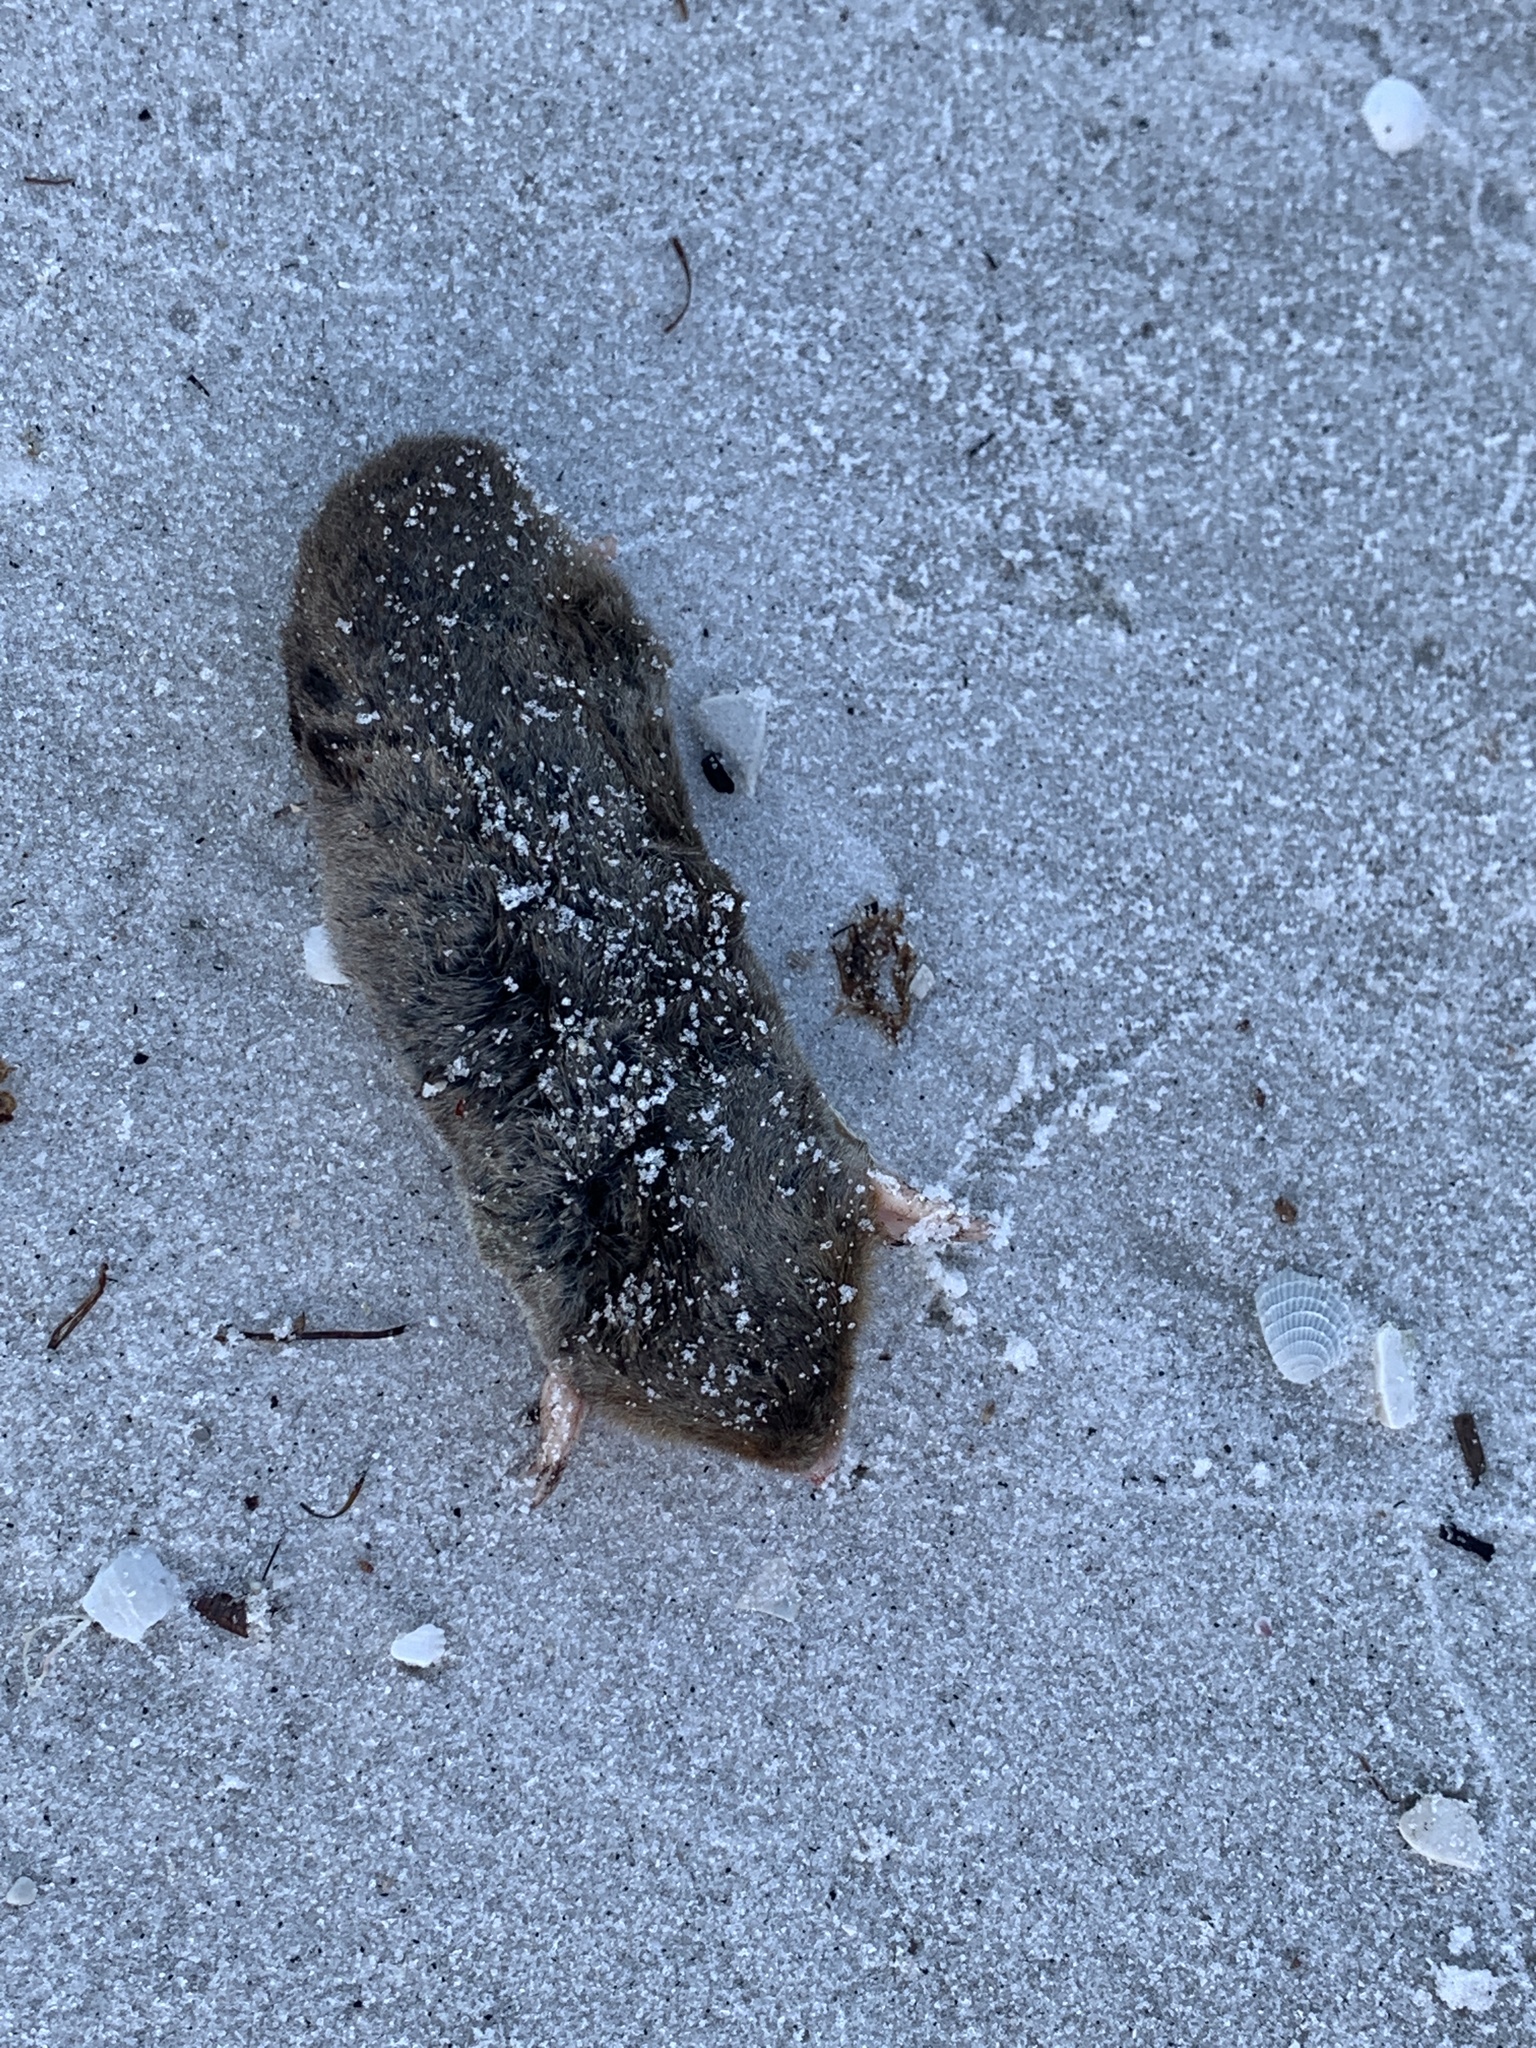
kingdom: Animalia
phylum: Chordata
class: Mammalia
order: Soricomorpha
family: Talpidae
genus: Scalopus
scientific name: Scalopus aquaticus
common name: Eastern mole
